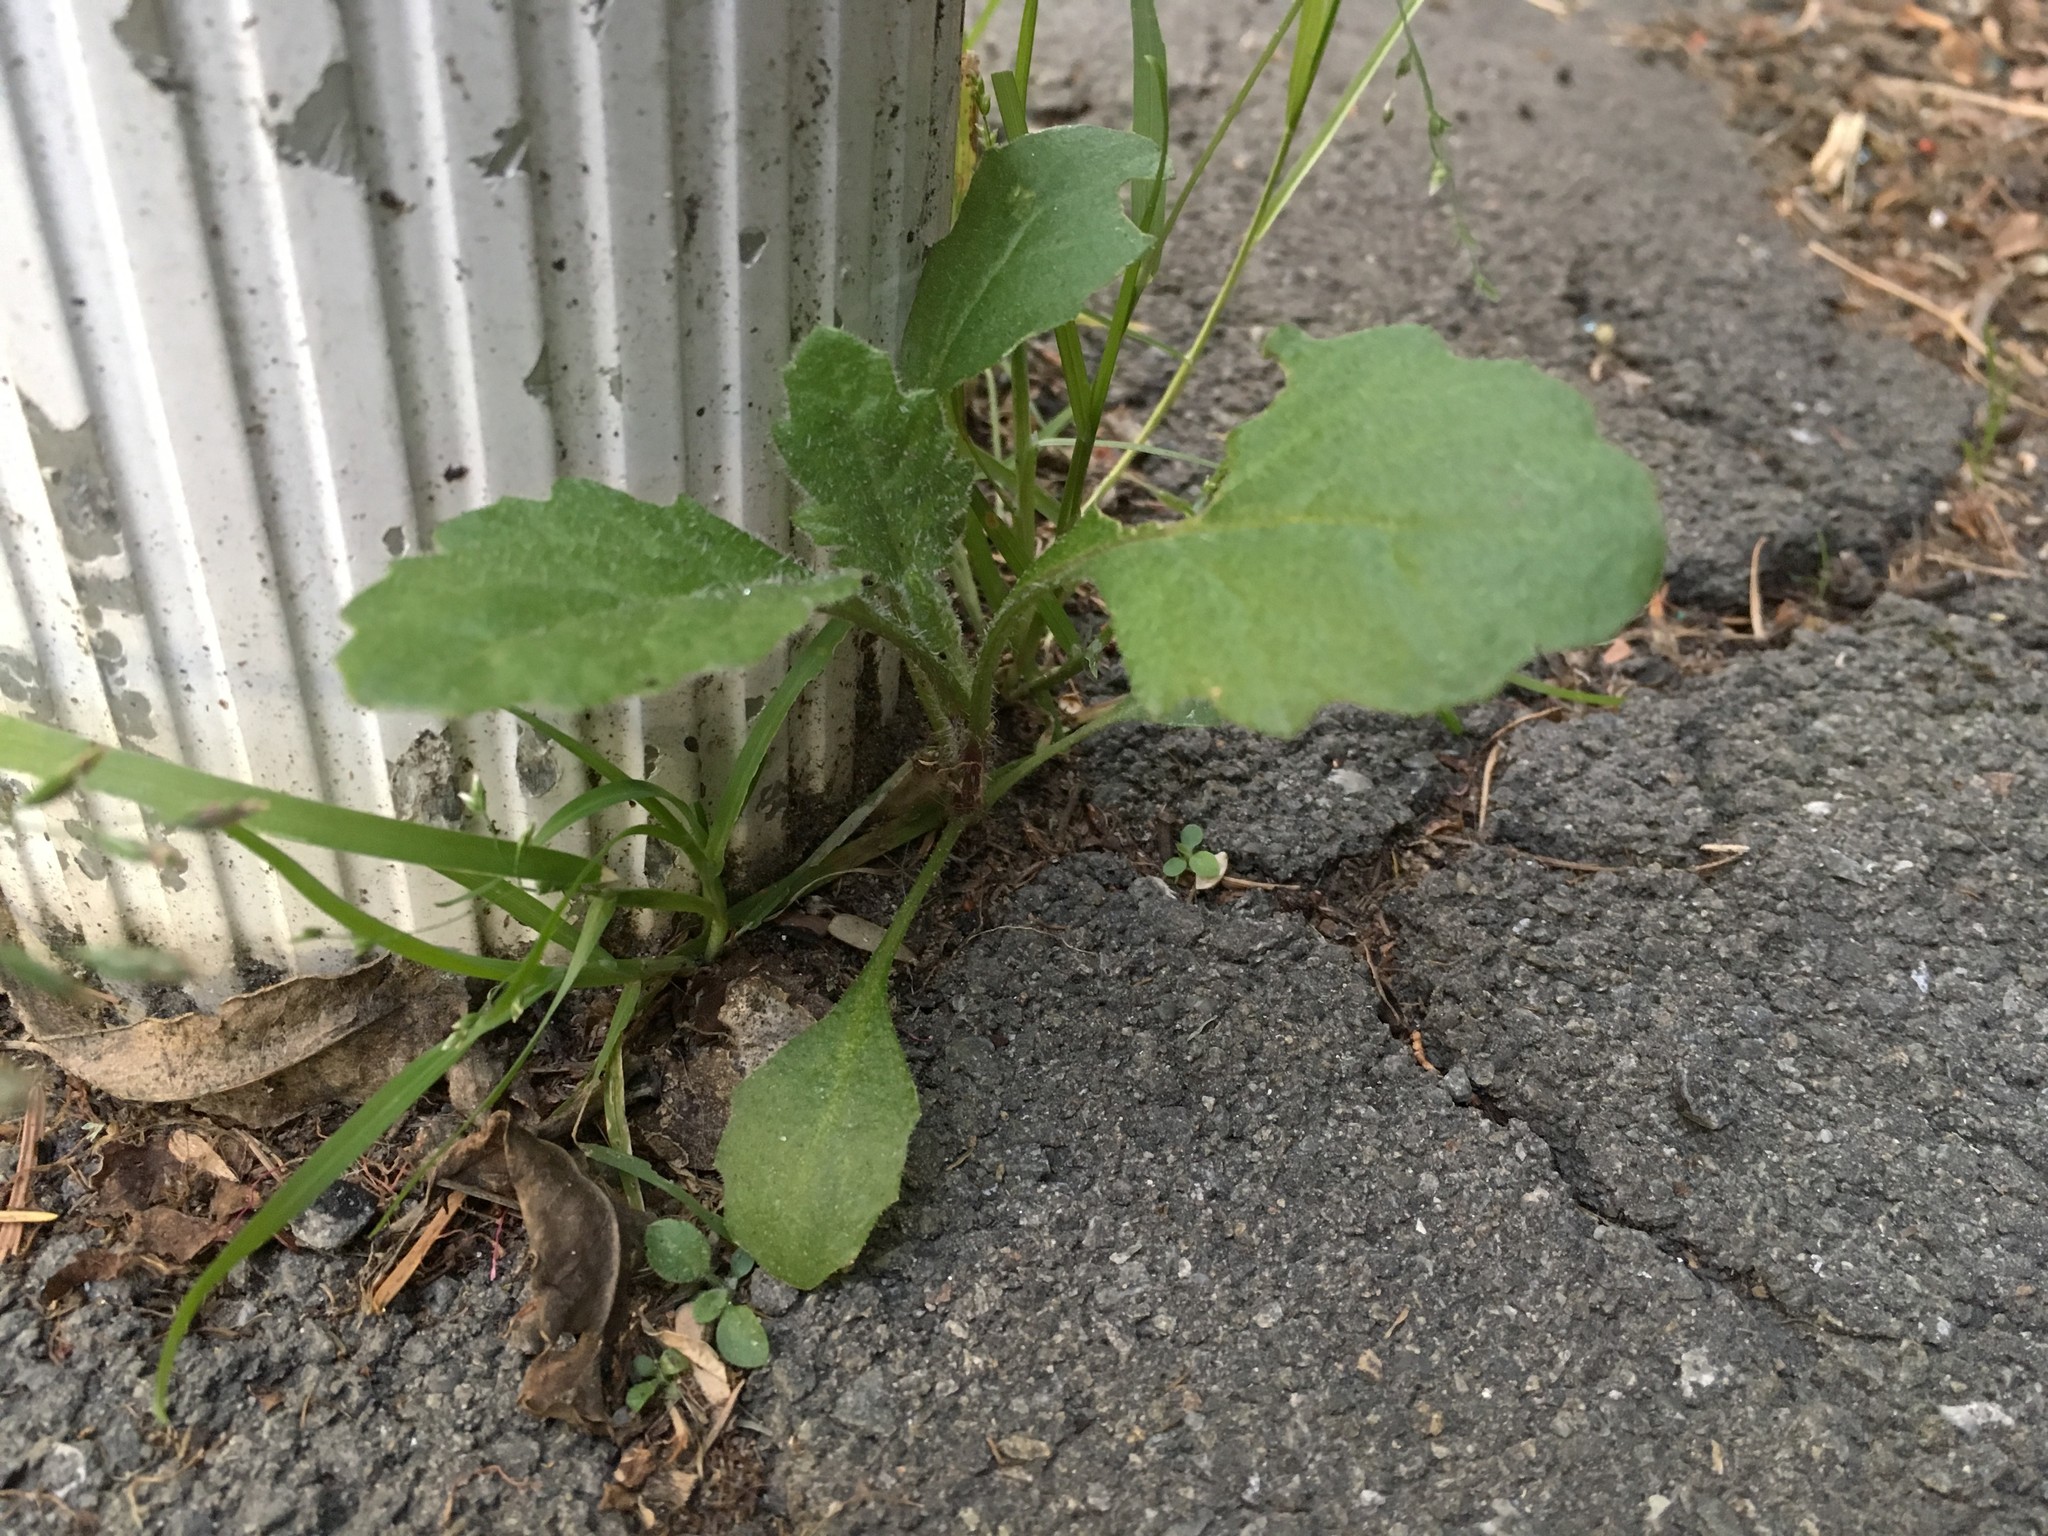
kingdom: Plantae
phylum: Tracheophyta
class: Magnoliopsida
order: Asterales
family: Asteraceae
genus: Senecio
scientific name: Senecio glomeratus
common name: Cutleaf burnweed
